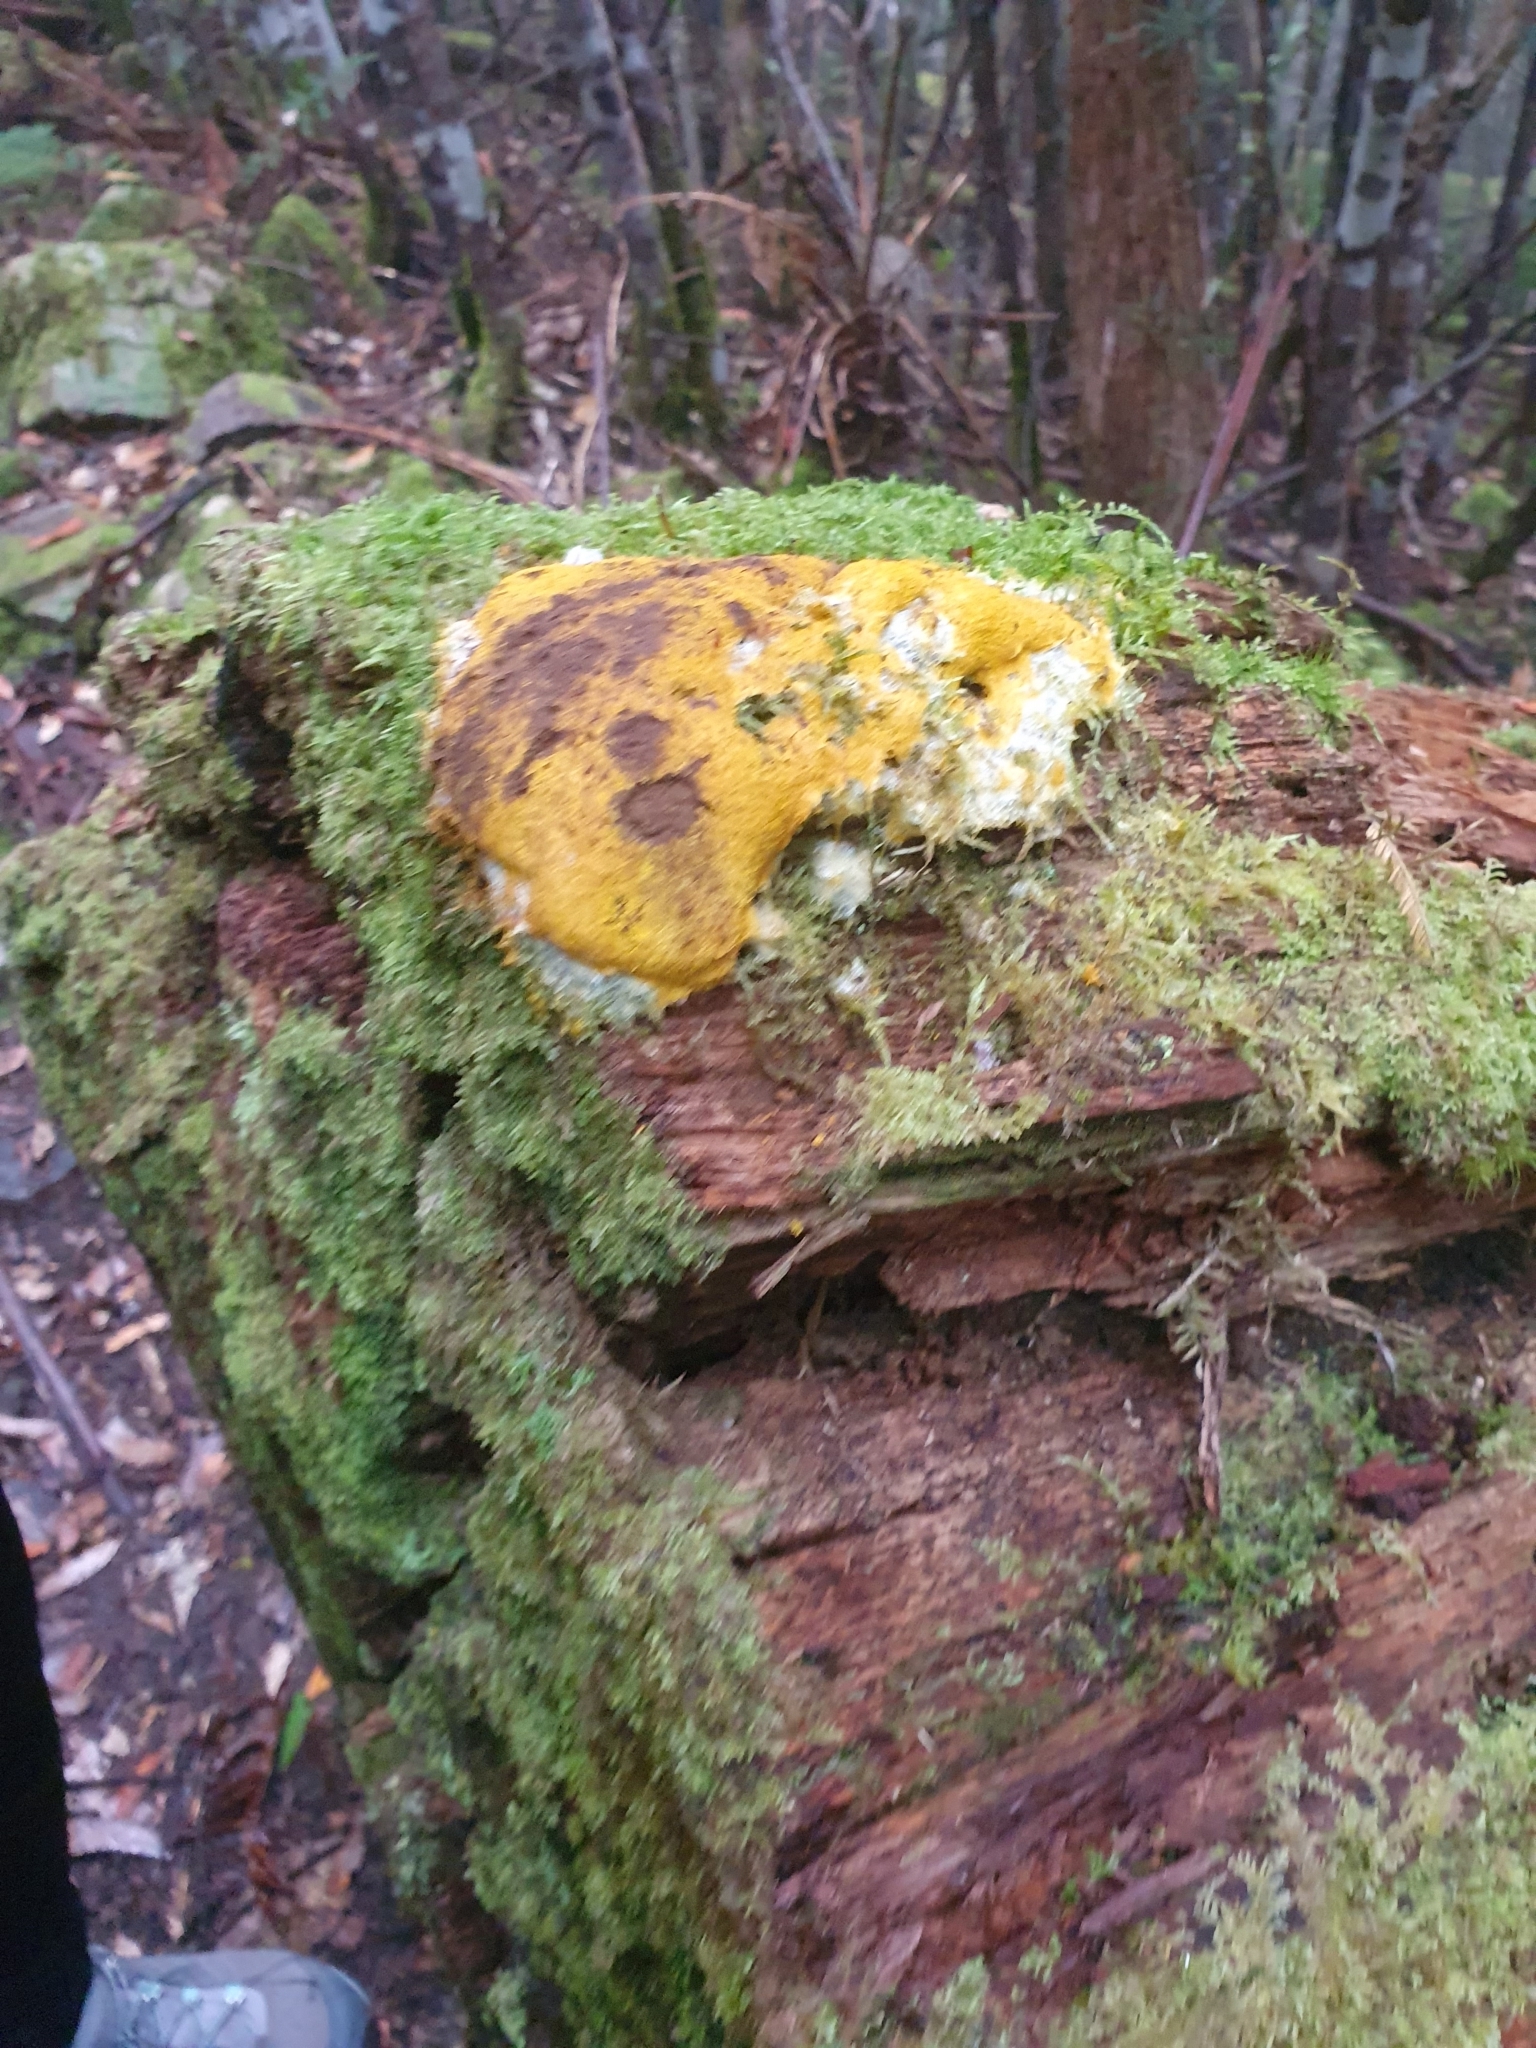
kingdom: Protozoa
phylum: Mycetozoa
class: Myxomycetes
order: Physarales
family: Physaraceae
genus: Fuligo
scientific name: Fuligo septica
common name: Dog vomit slime mold
